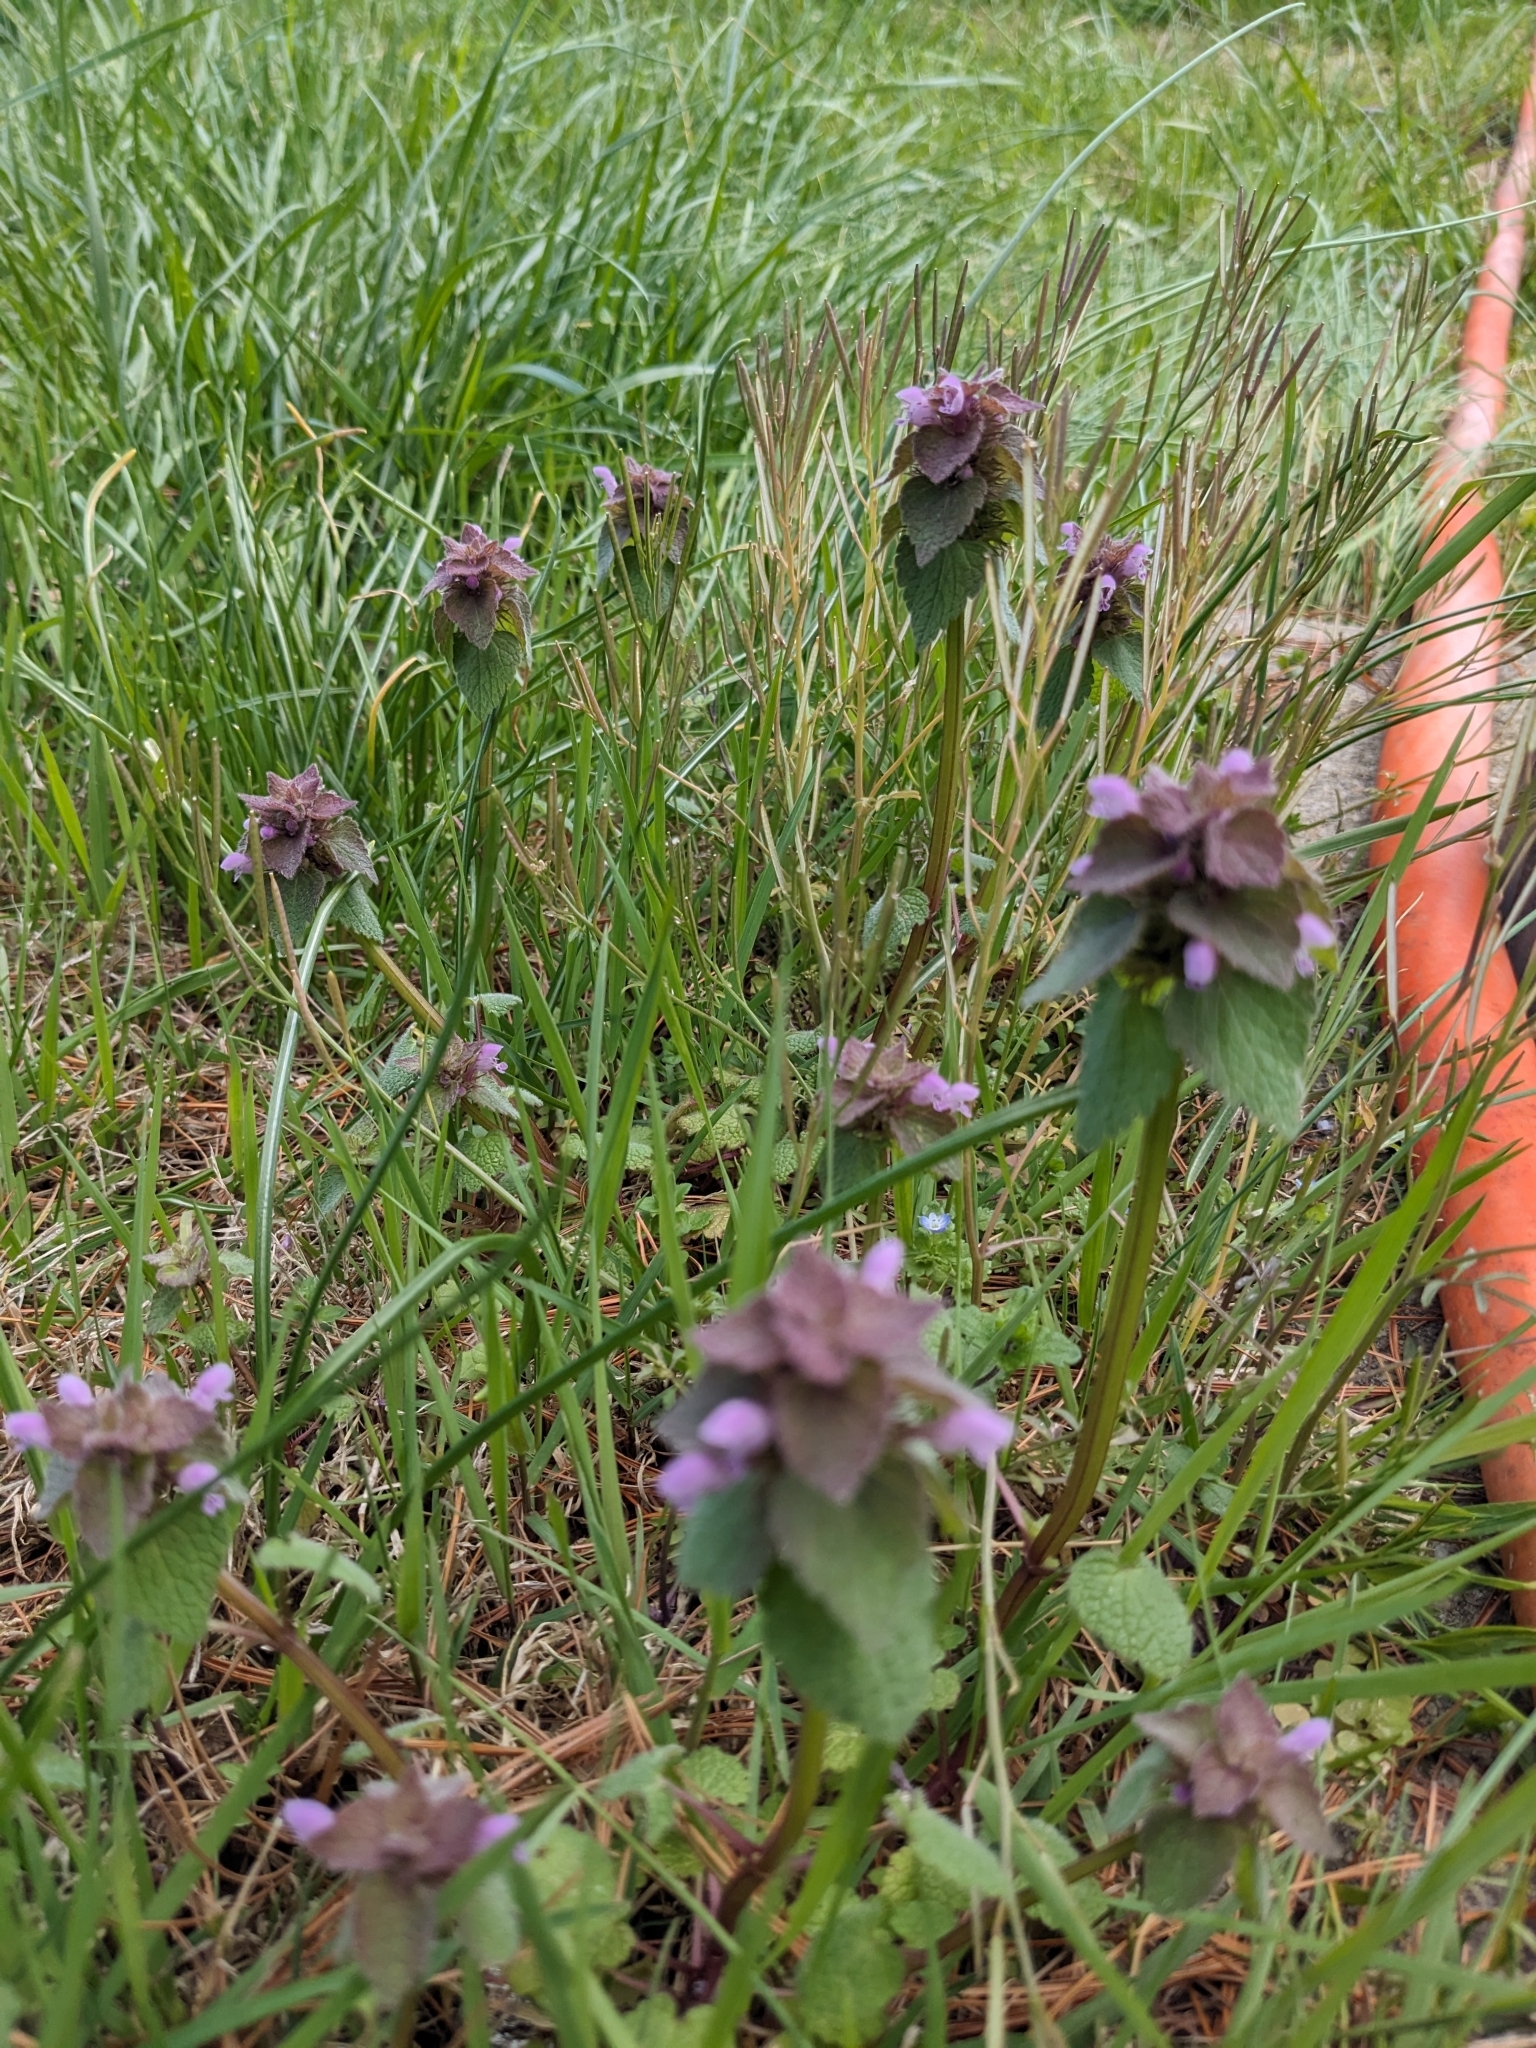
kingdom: Plantae
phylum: Tracheophyta
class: Magnoliopsida
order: Lamiales
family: Lamiaceae
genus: Lamium
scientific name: Lamium purpureum
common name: Red dead-nettle
